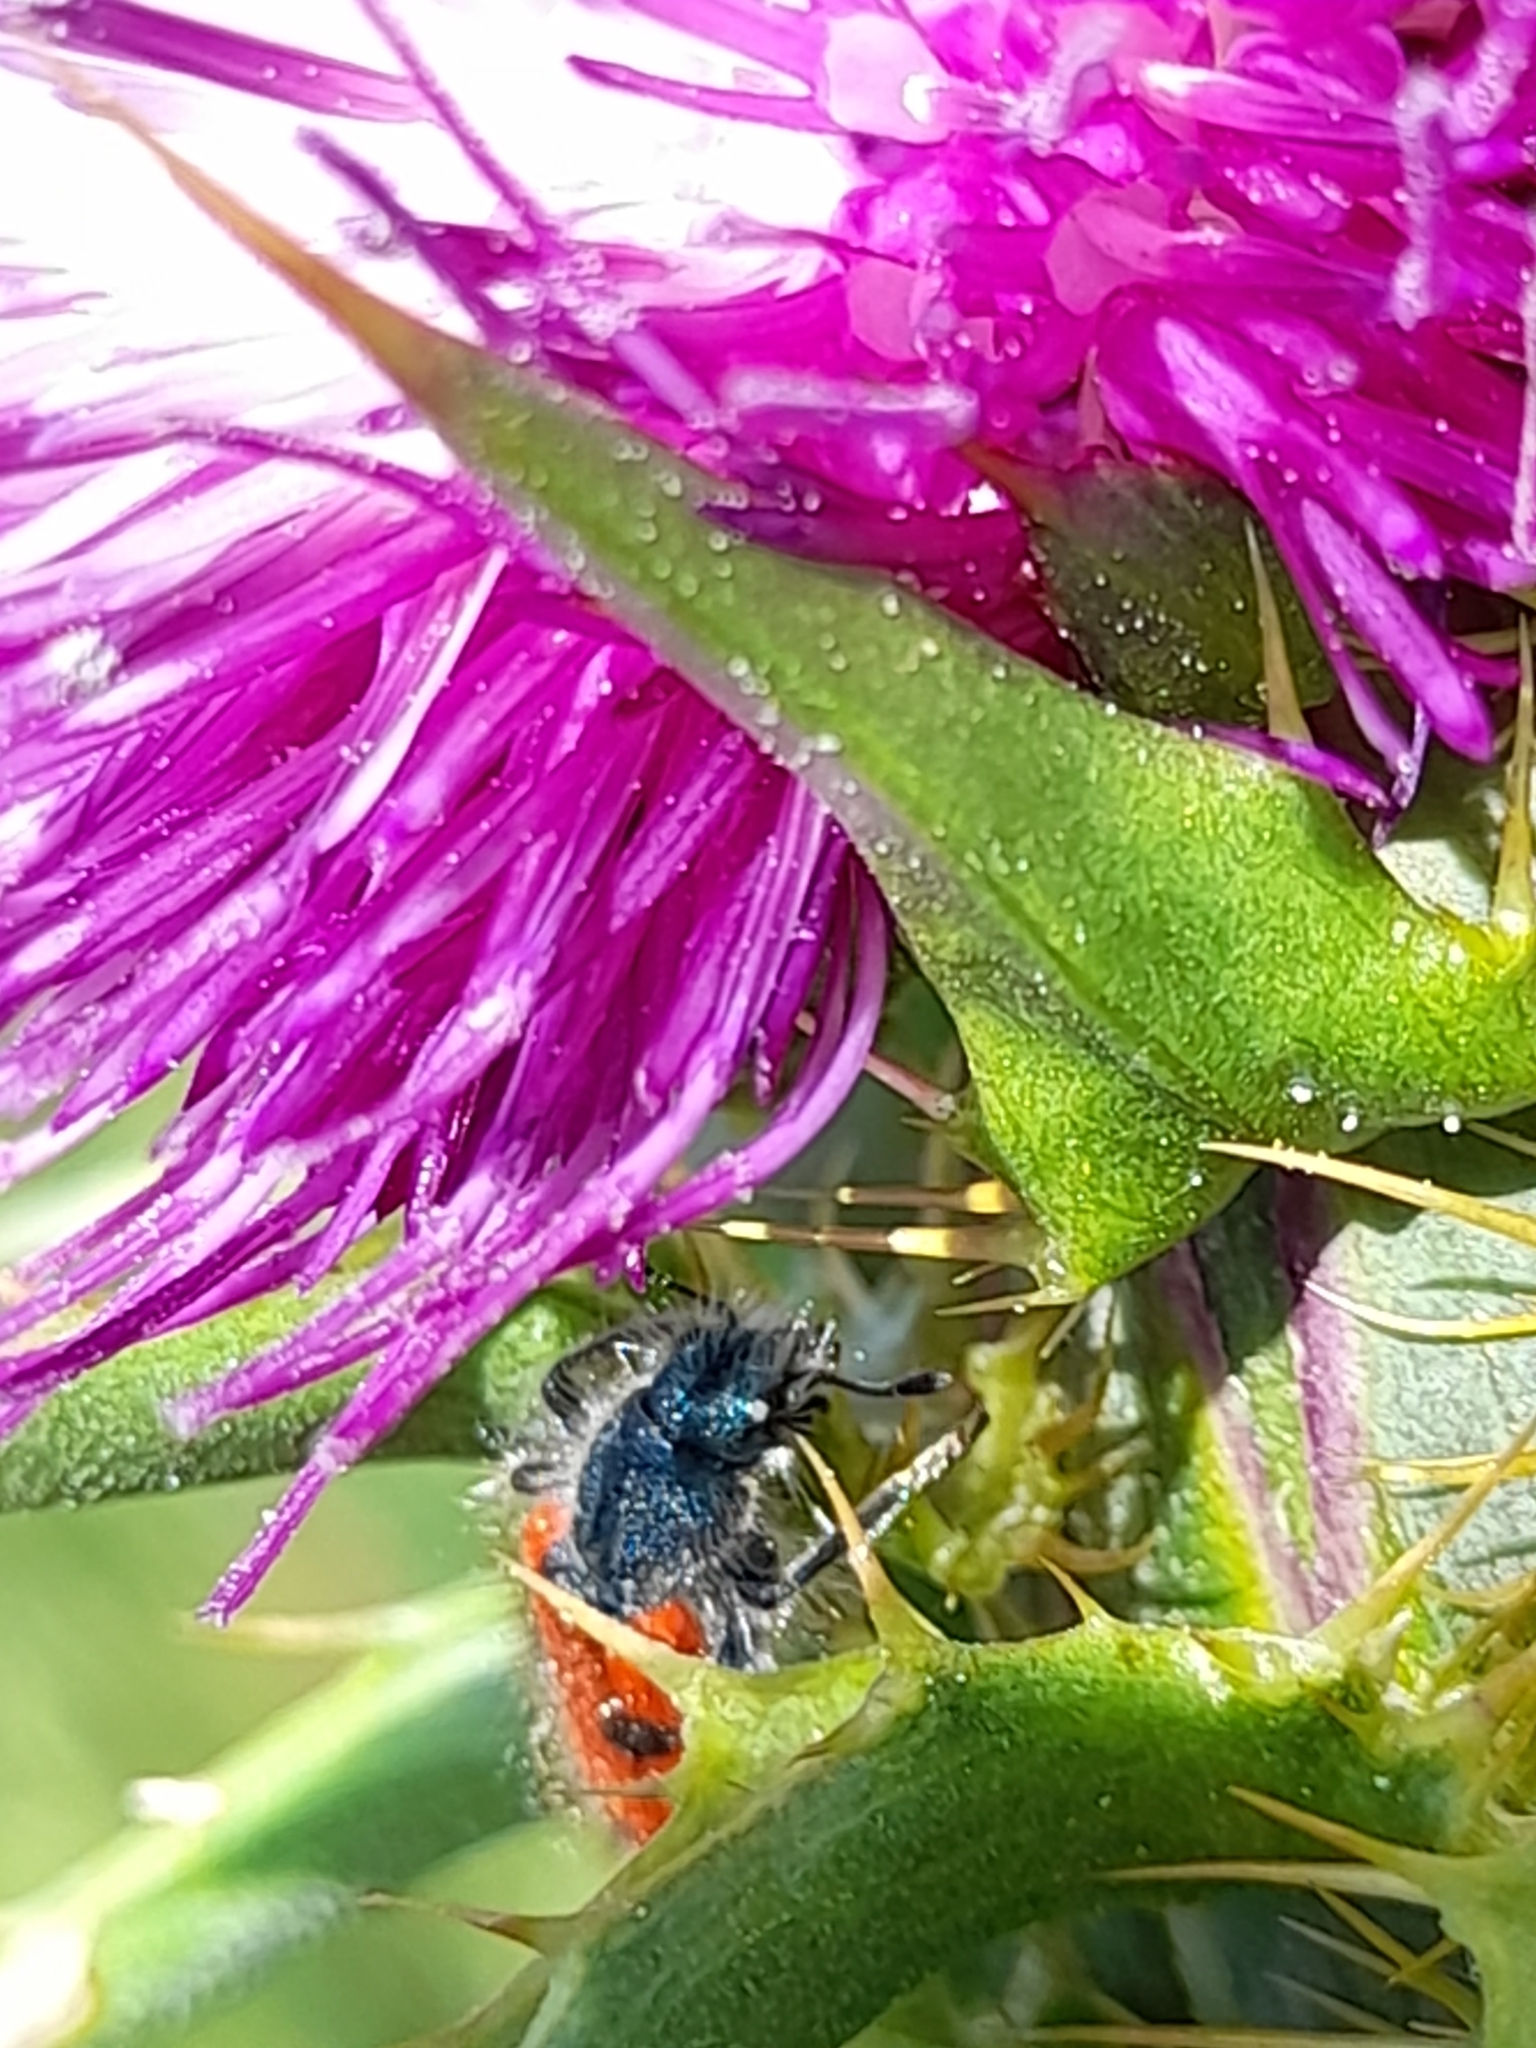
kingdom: Animalia
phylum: Arthropoda
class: Insecta
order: Coleoptera
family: Cleridae
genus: Trichodes
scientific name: Trichodes octopunctatus
